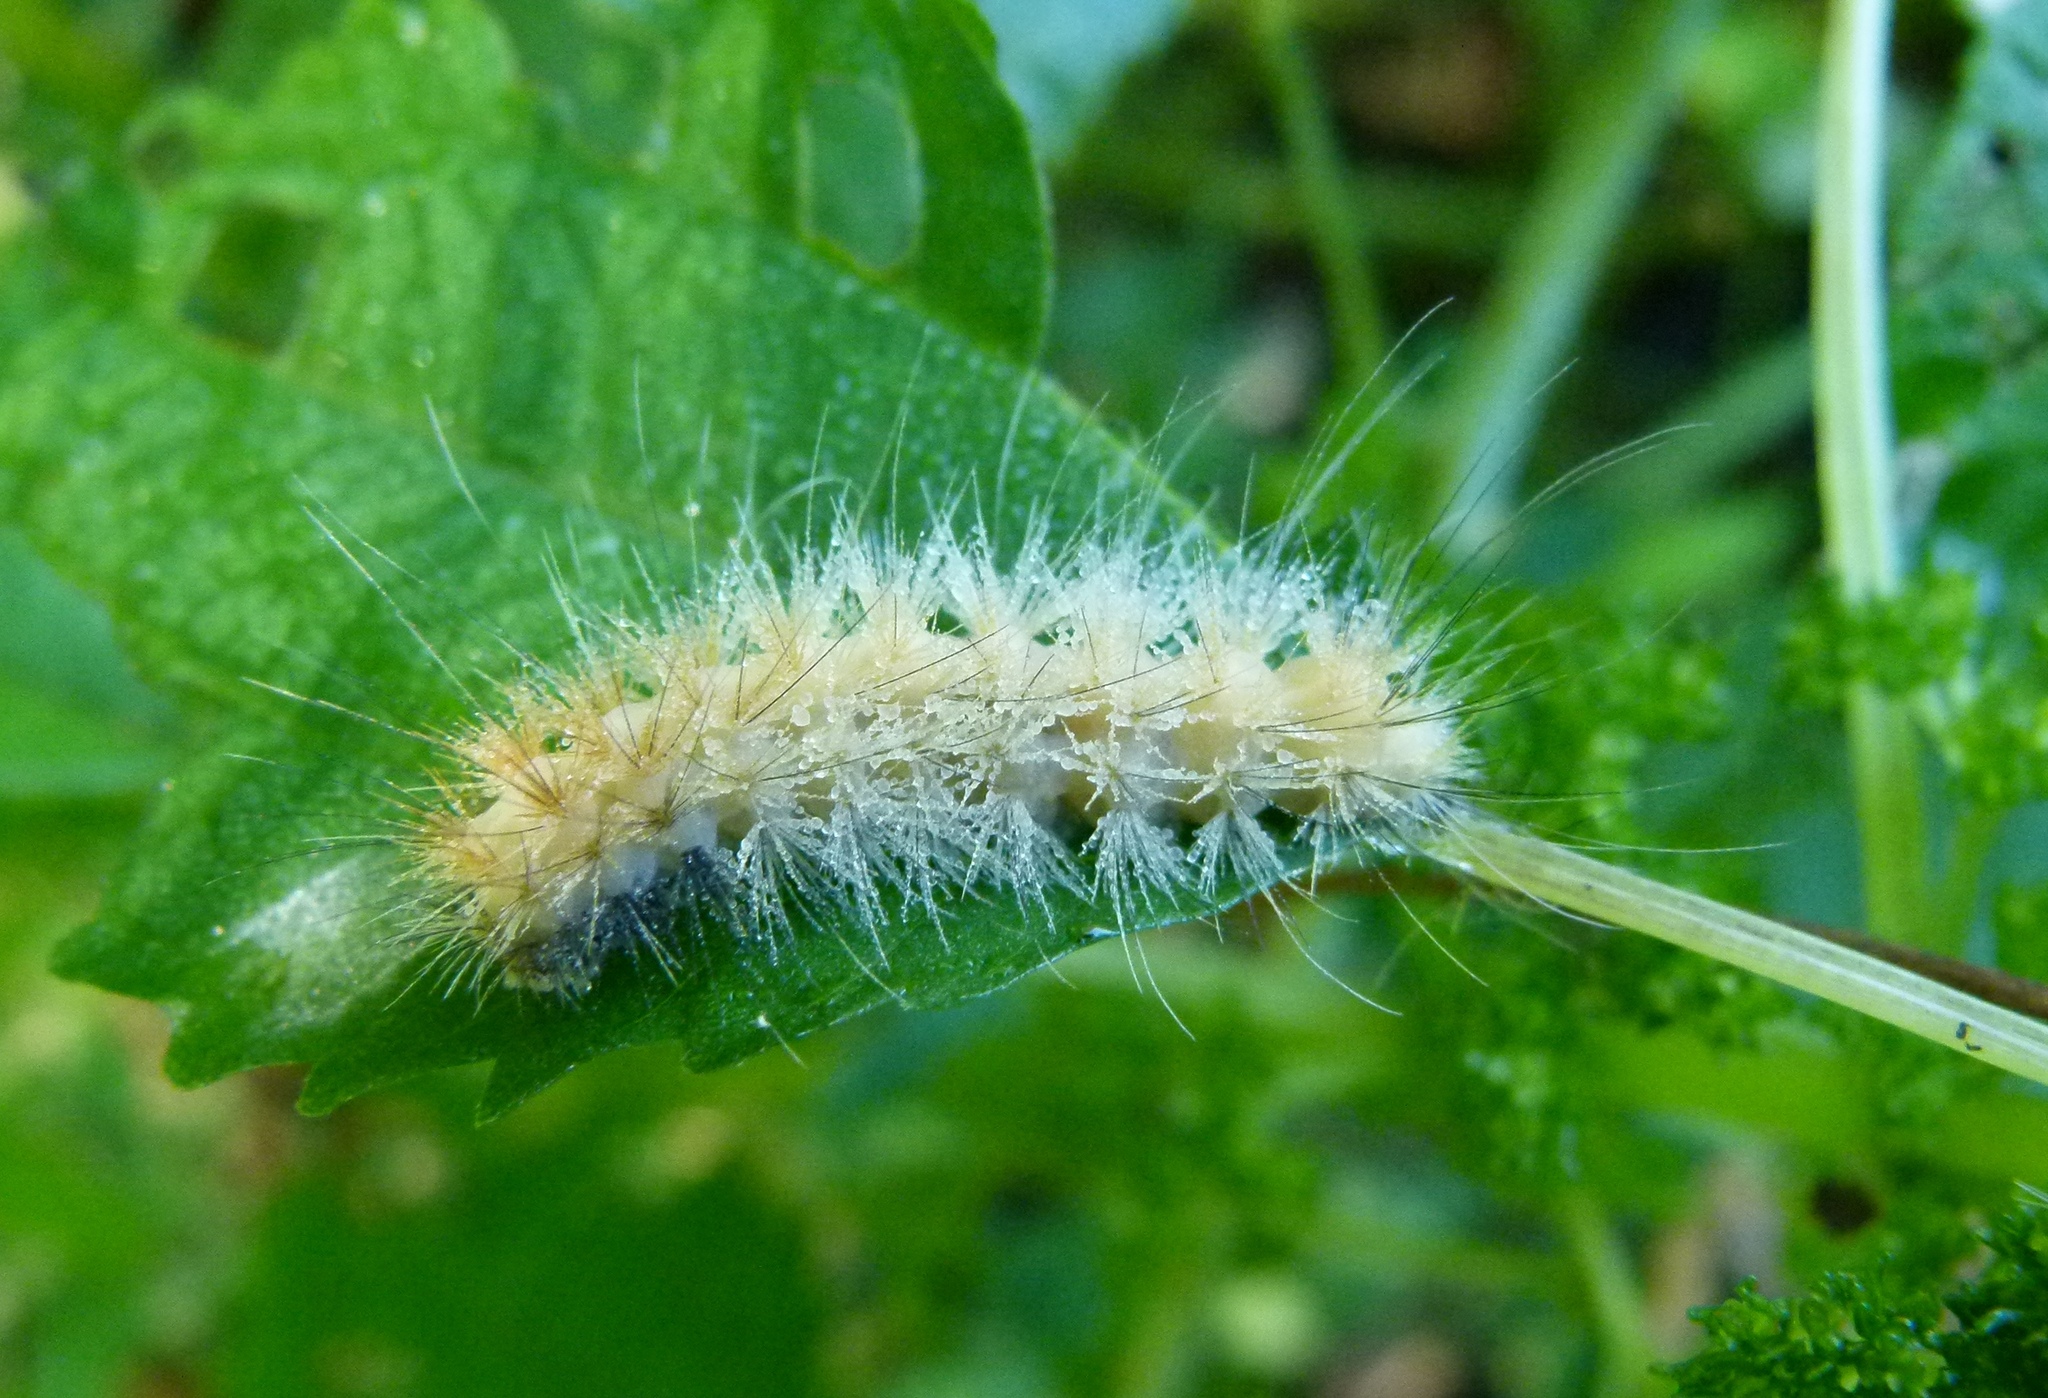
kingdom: Animalia
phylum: Arthropoda
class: Insecta
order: Lepidoptera
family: Erebidae
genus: Spilosoma
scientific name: Spilosoma virginica
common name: Virginia tiger moth
